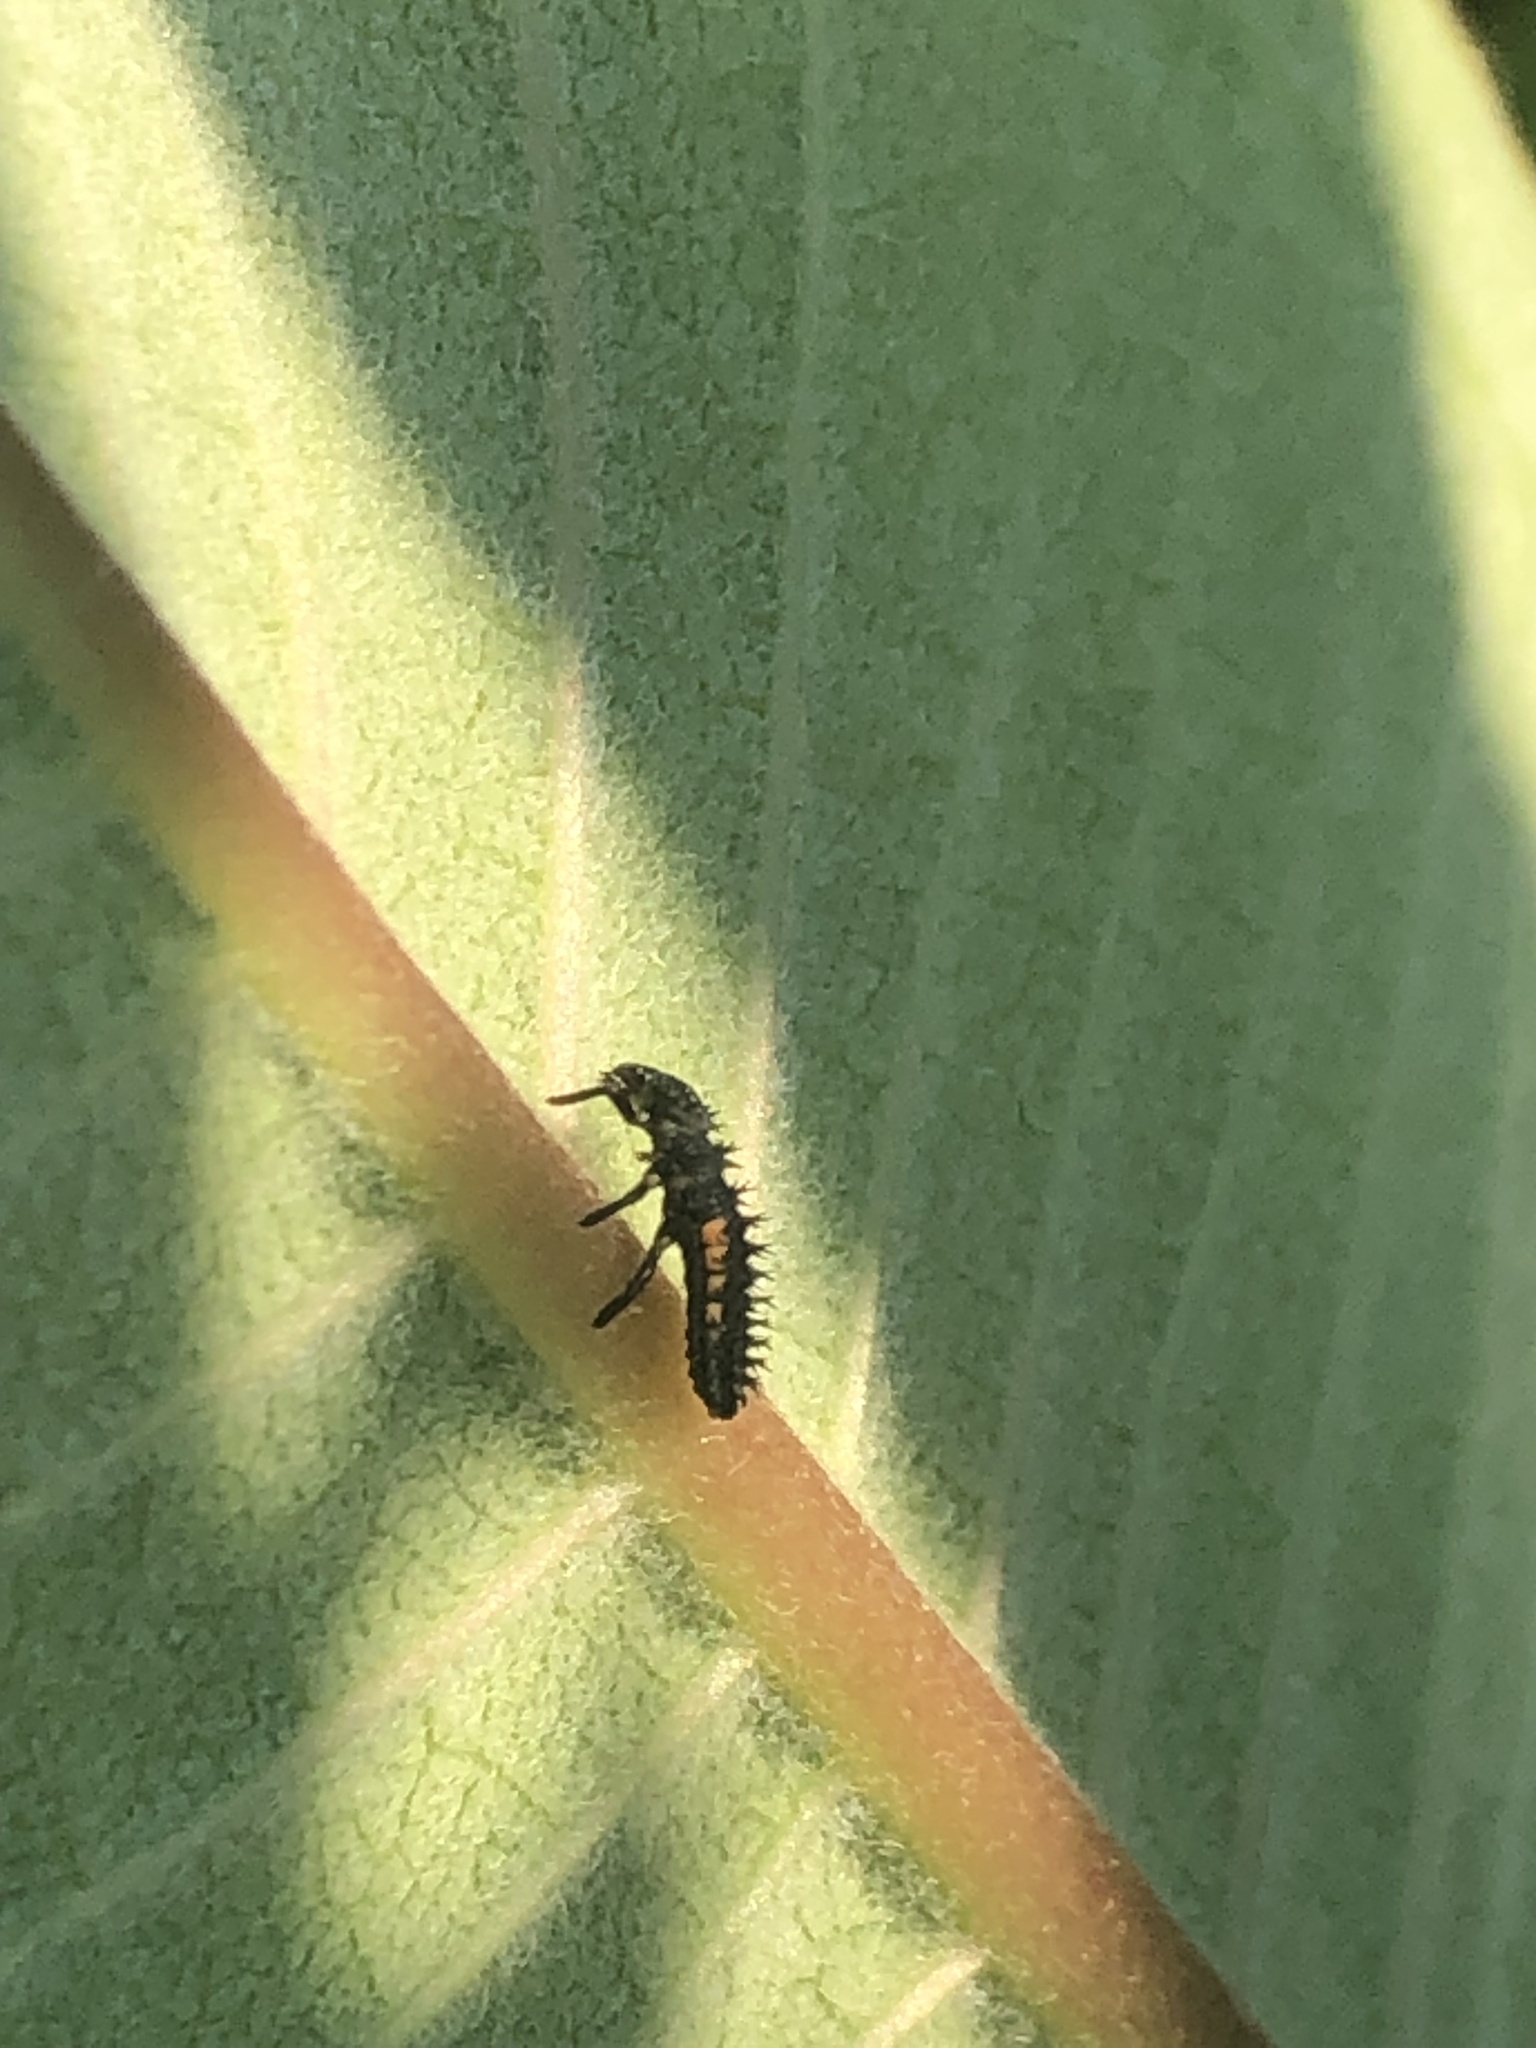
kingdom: Animalia
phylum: Arthropoda
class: Insecta
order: Coleoptera
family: Coccinellidae
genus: Harmonia
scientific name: Harmonia axyridis
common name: Harlequin ladybird
